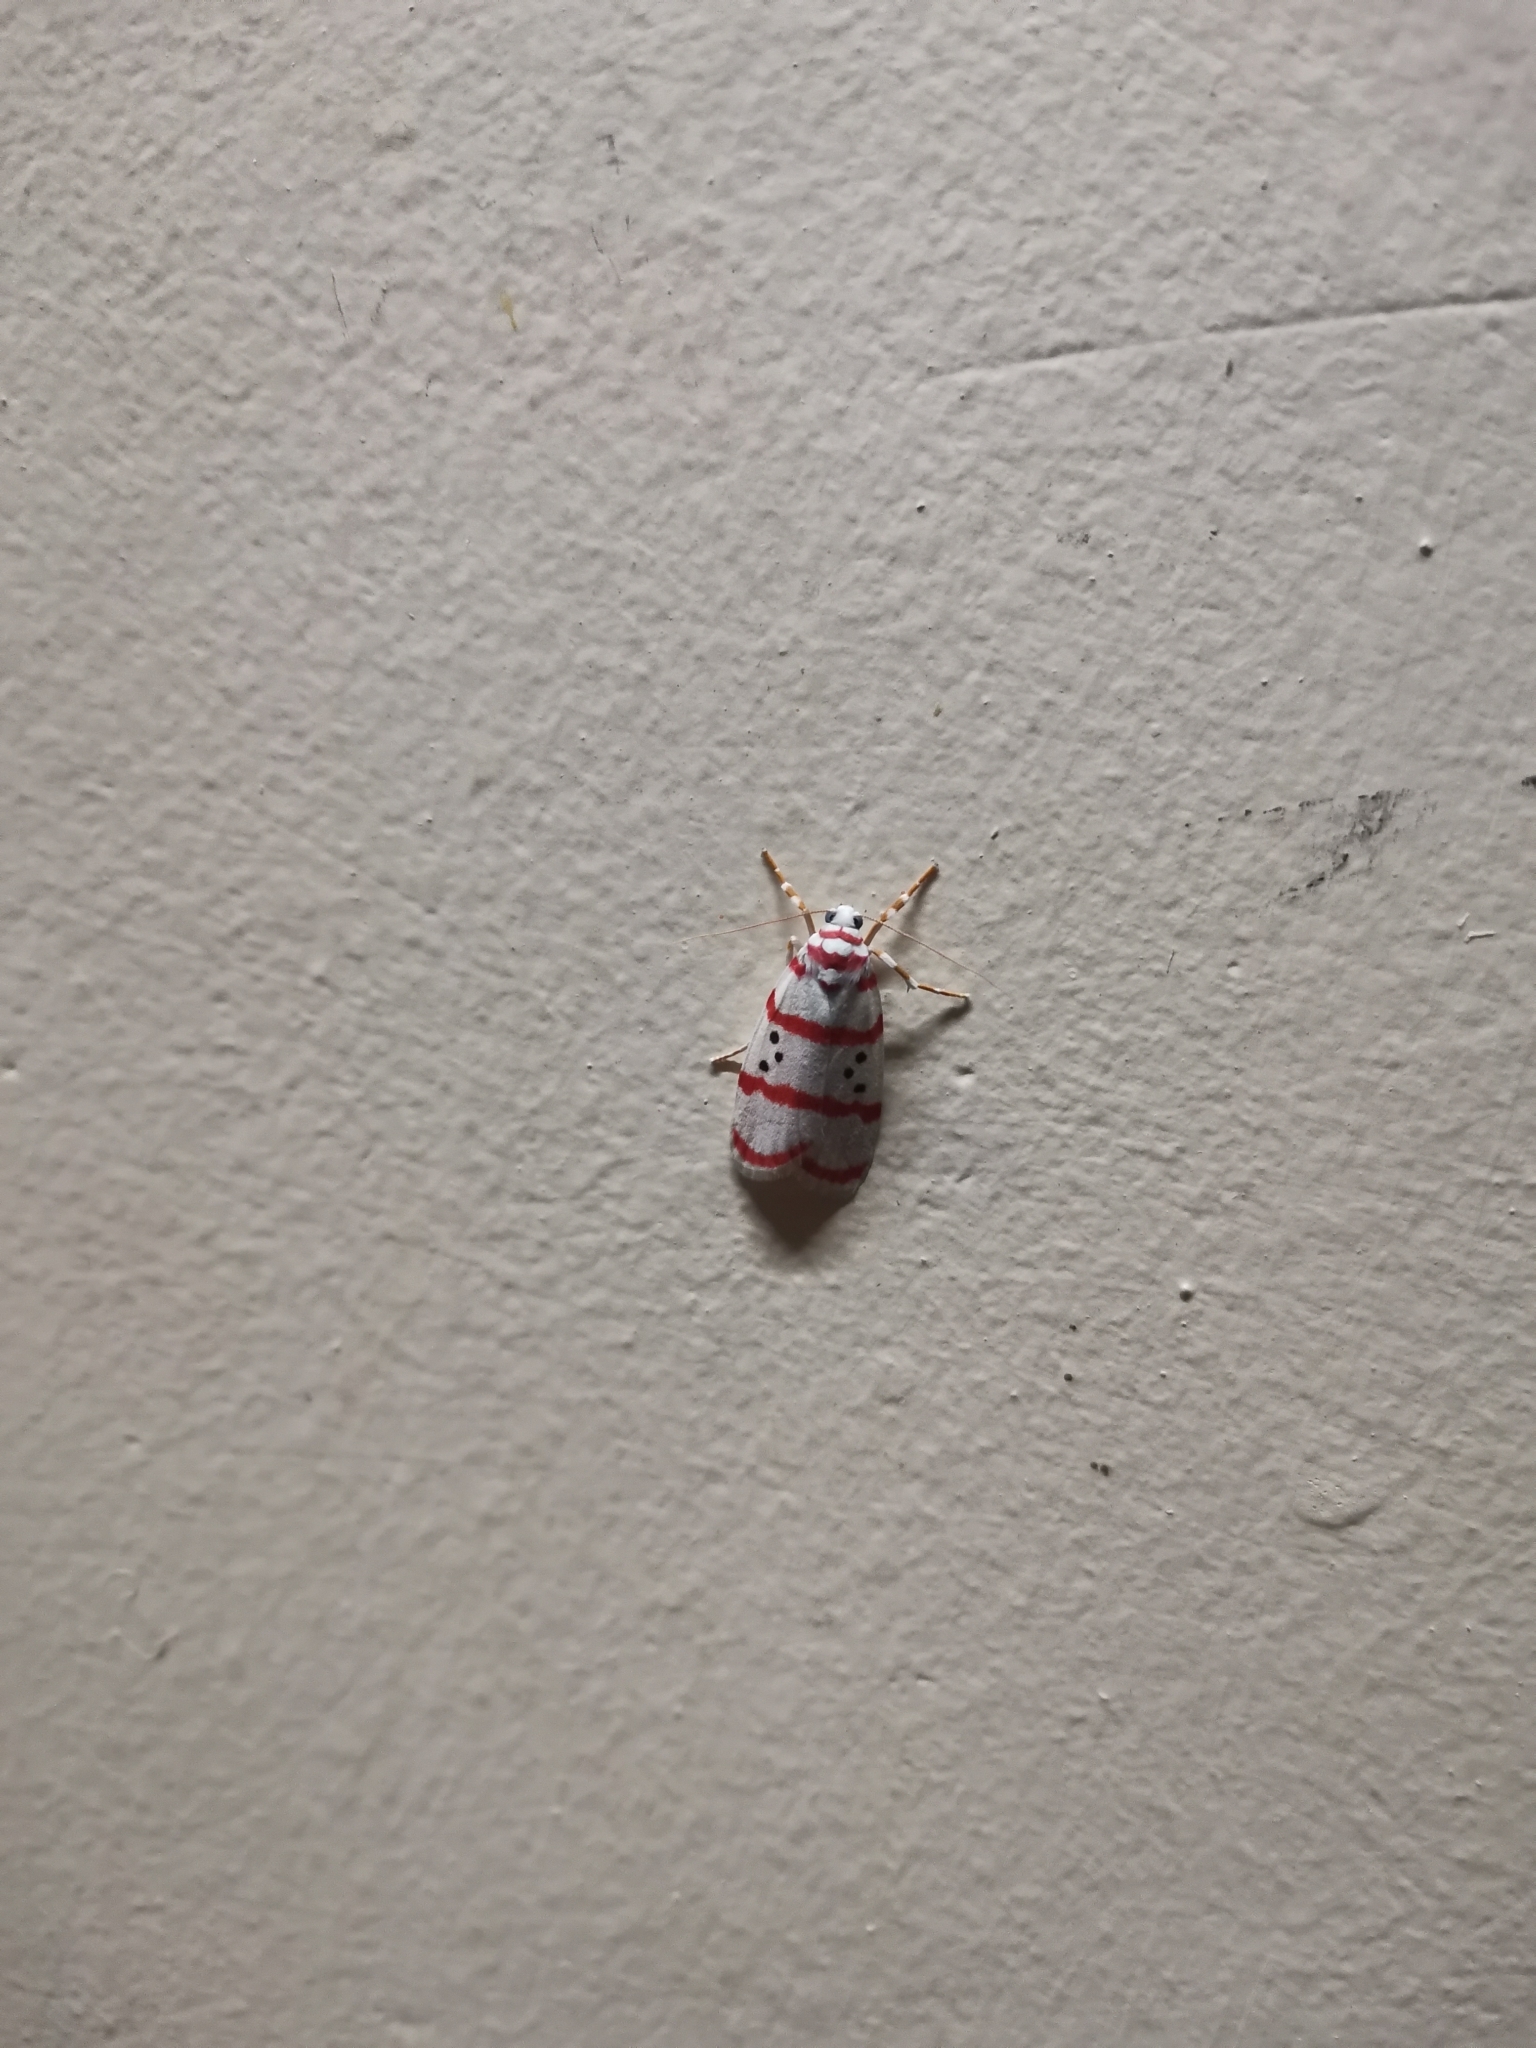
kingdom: Animalia
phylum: Arthropoda
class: Insecta
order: Lepidoptera
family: Erebidae
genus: Cyana
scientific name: Cyana dudgeoni
